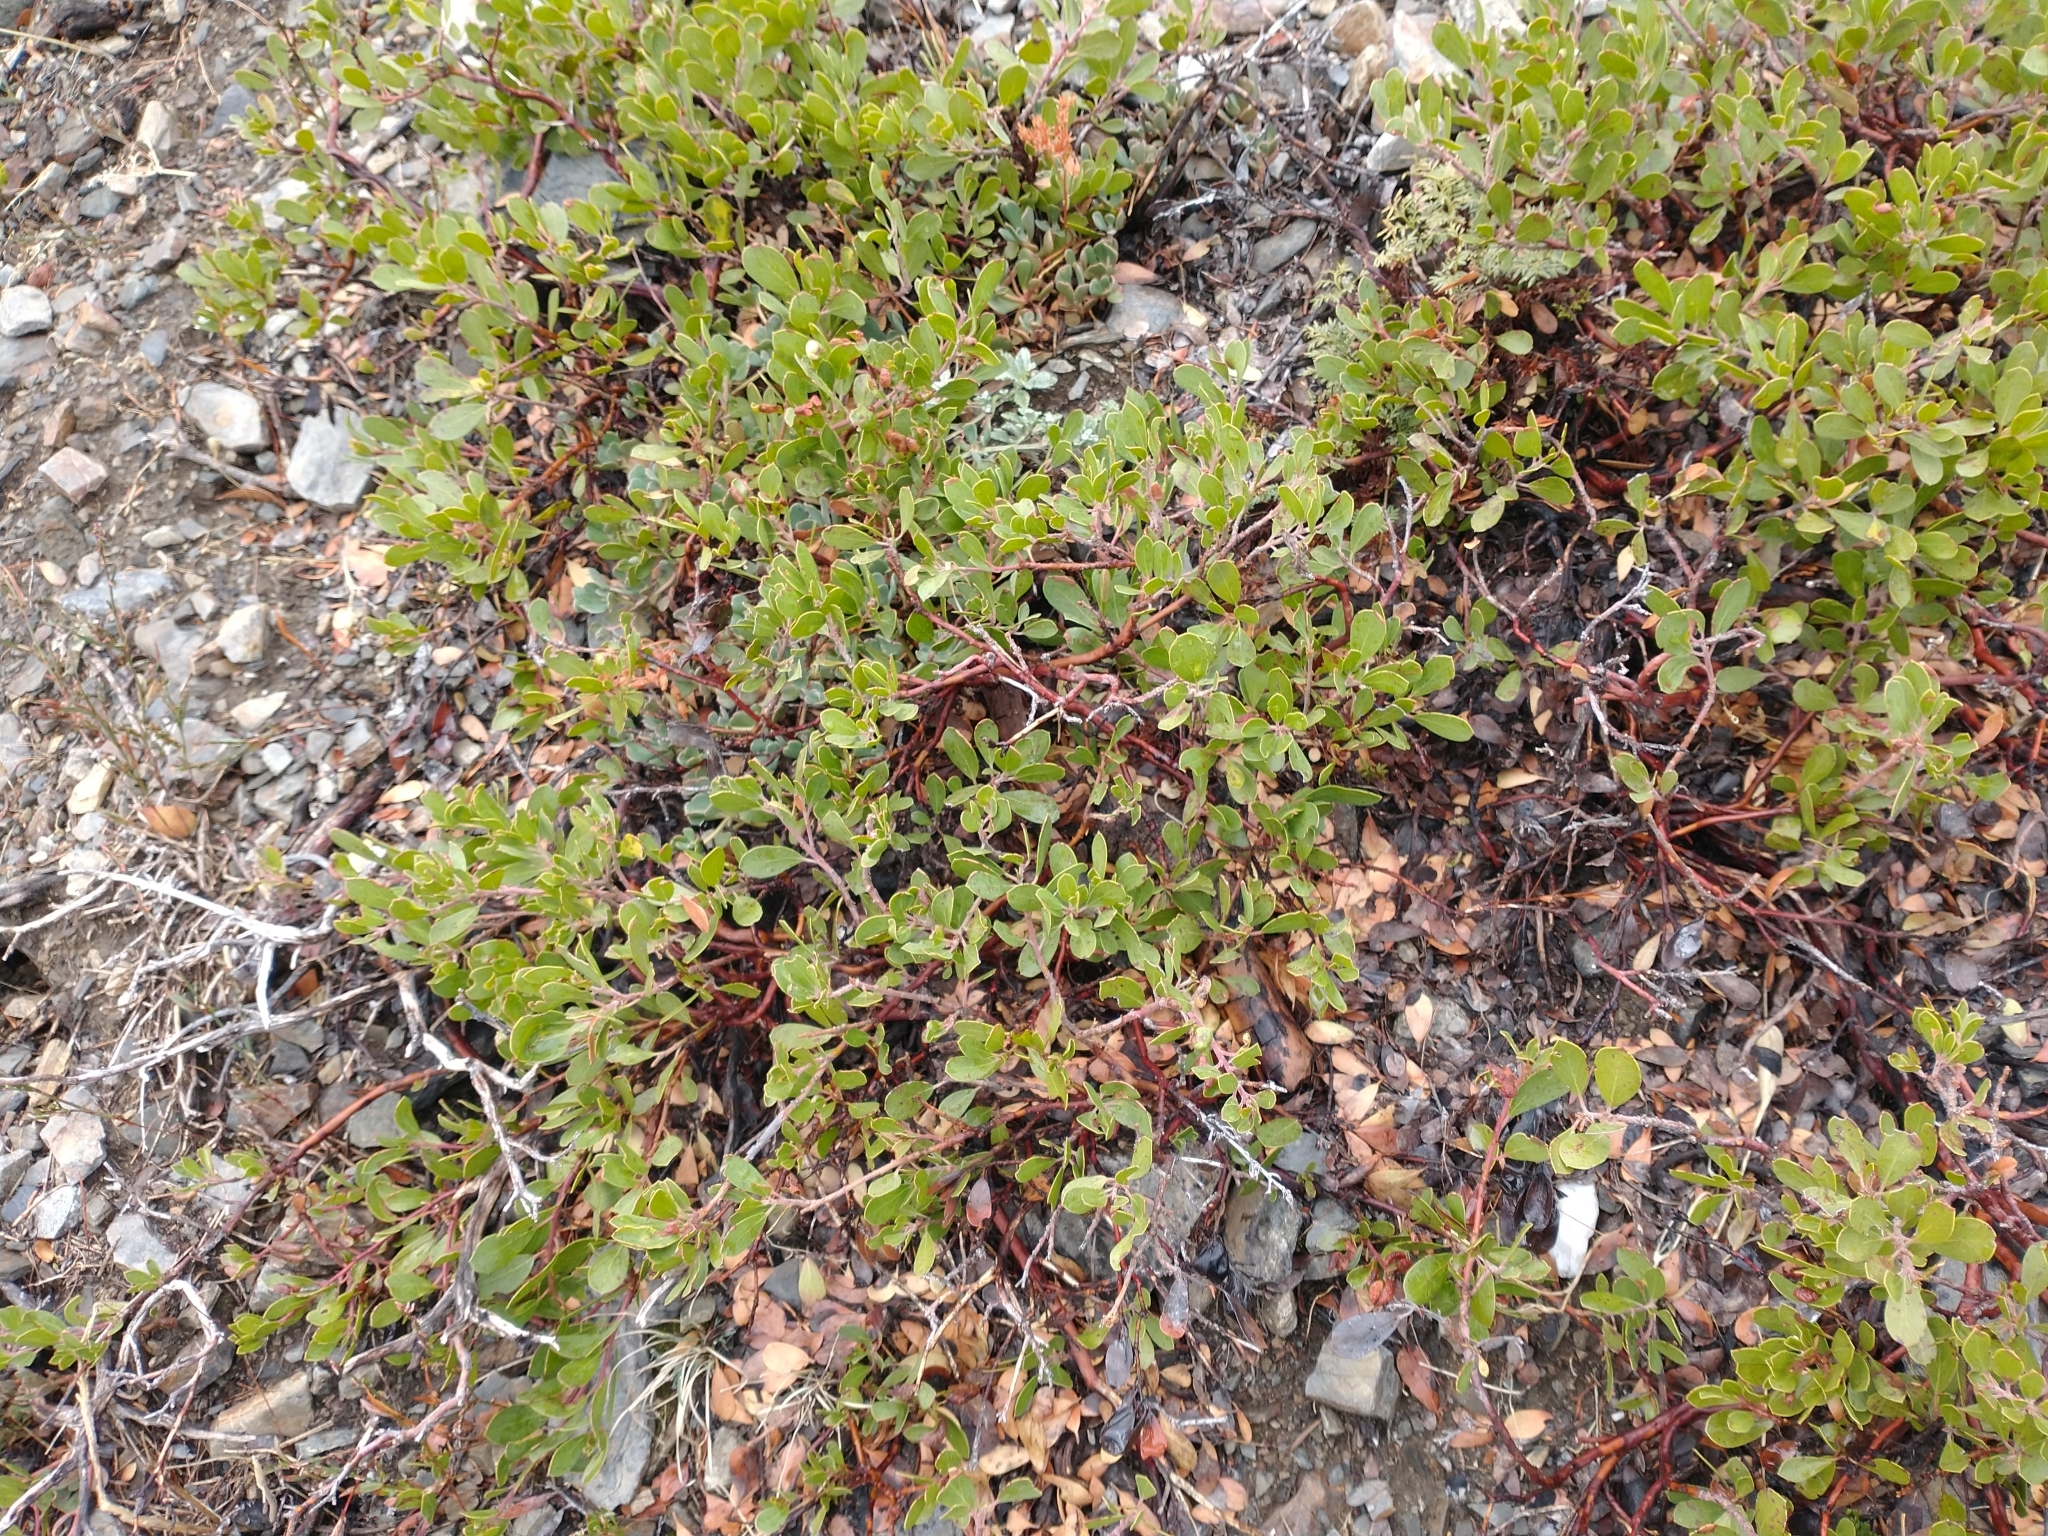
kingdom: Plantae
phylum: Tracheophyta
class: Magnoliopsida
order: Ericales
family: Ericaceae
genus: Arctostaphylos
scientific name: Arctostaphylos nevadensis
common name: Pinemat manzanita
